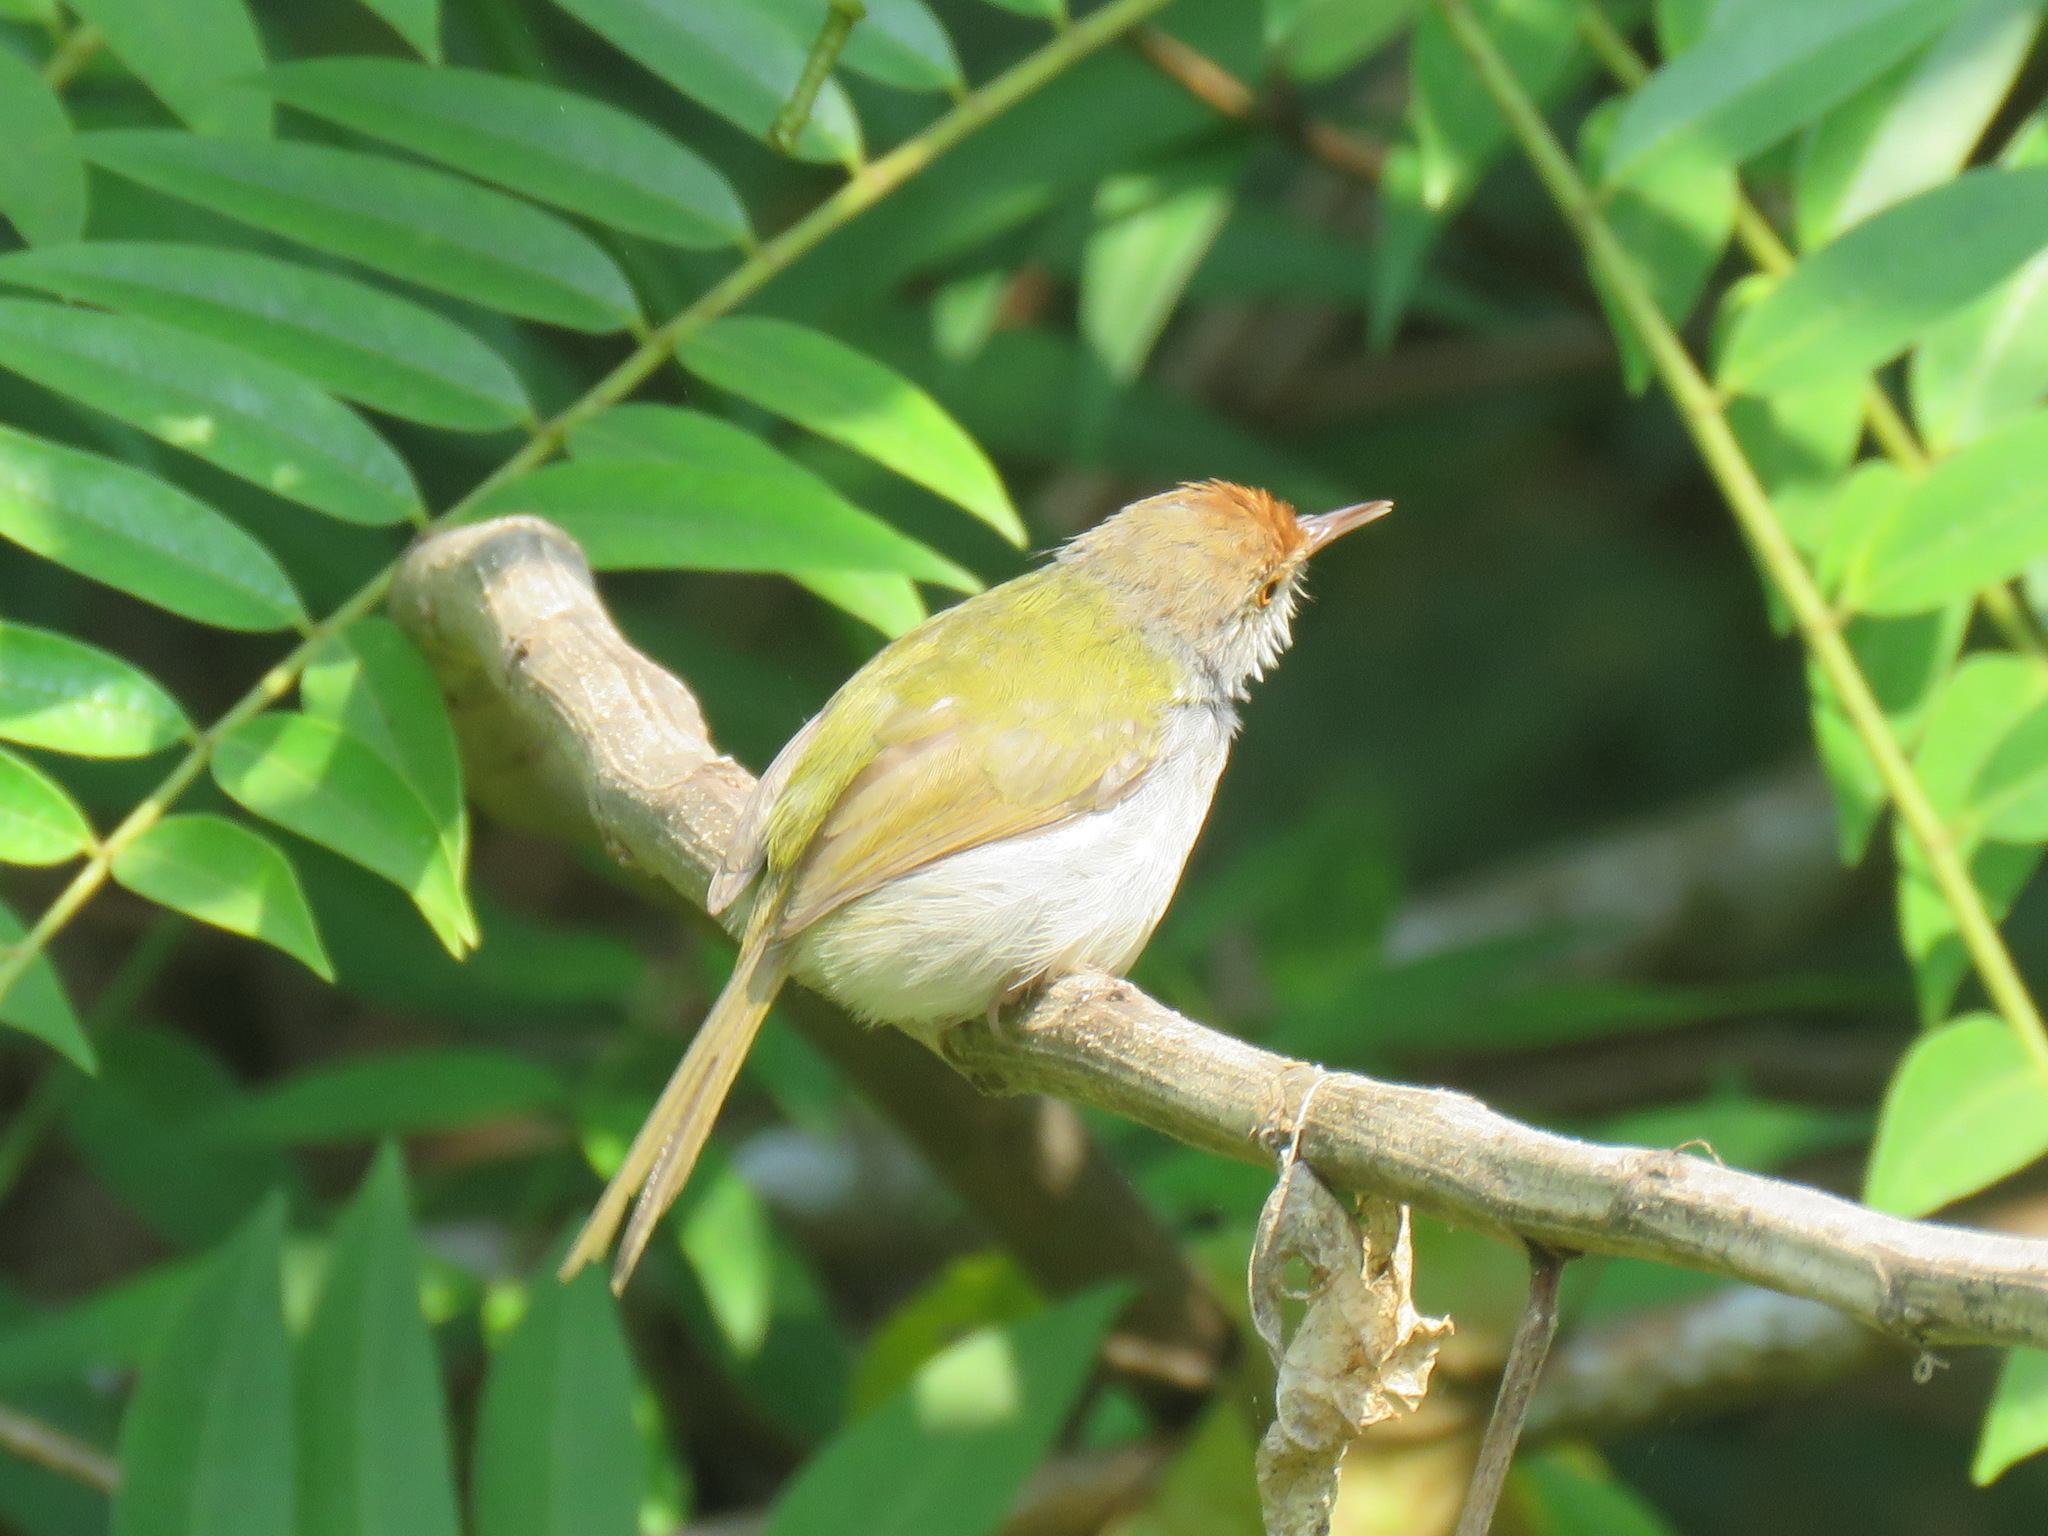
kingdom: Animalia
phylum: Chordata
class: Aves
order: Passeriformes
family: Cisticolidae
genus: Orthotomus
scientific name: Orthotomus sutorius
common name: Common tailorbird
